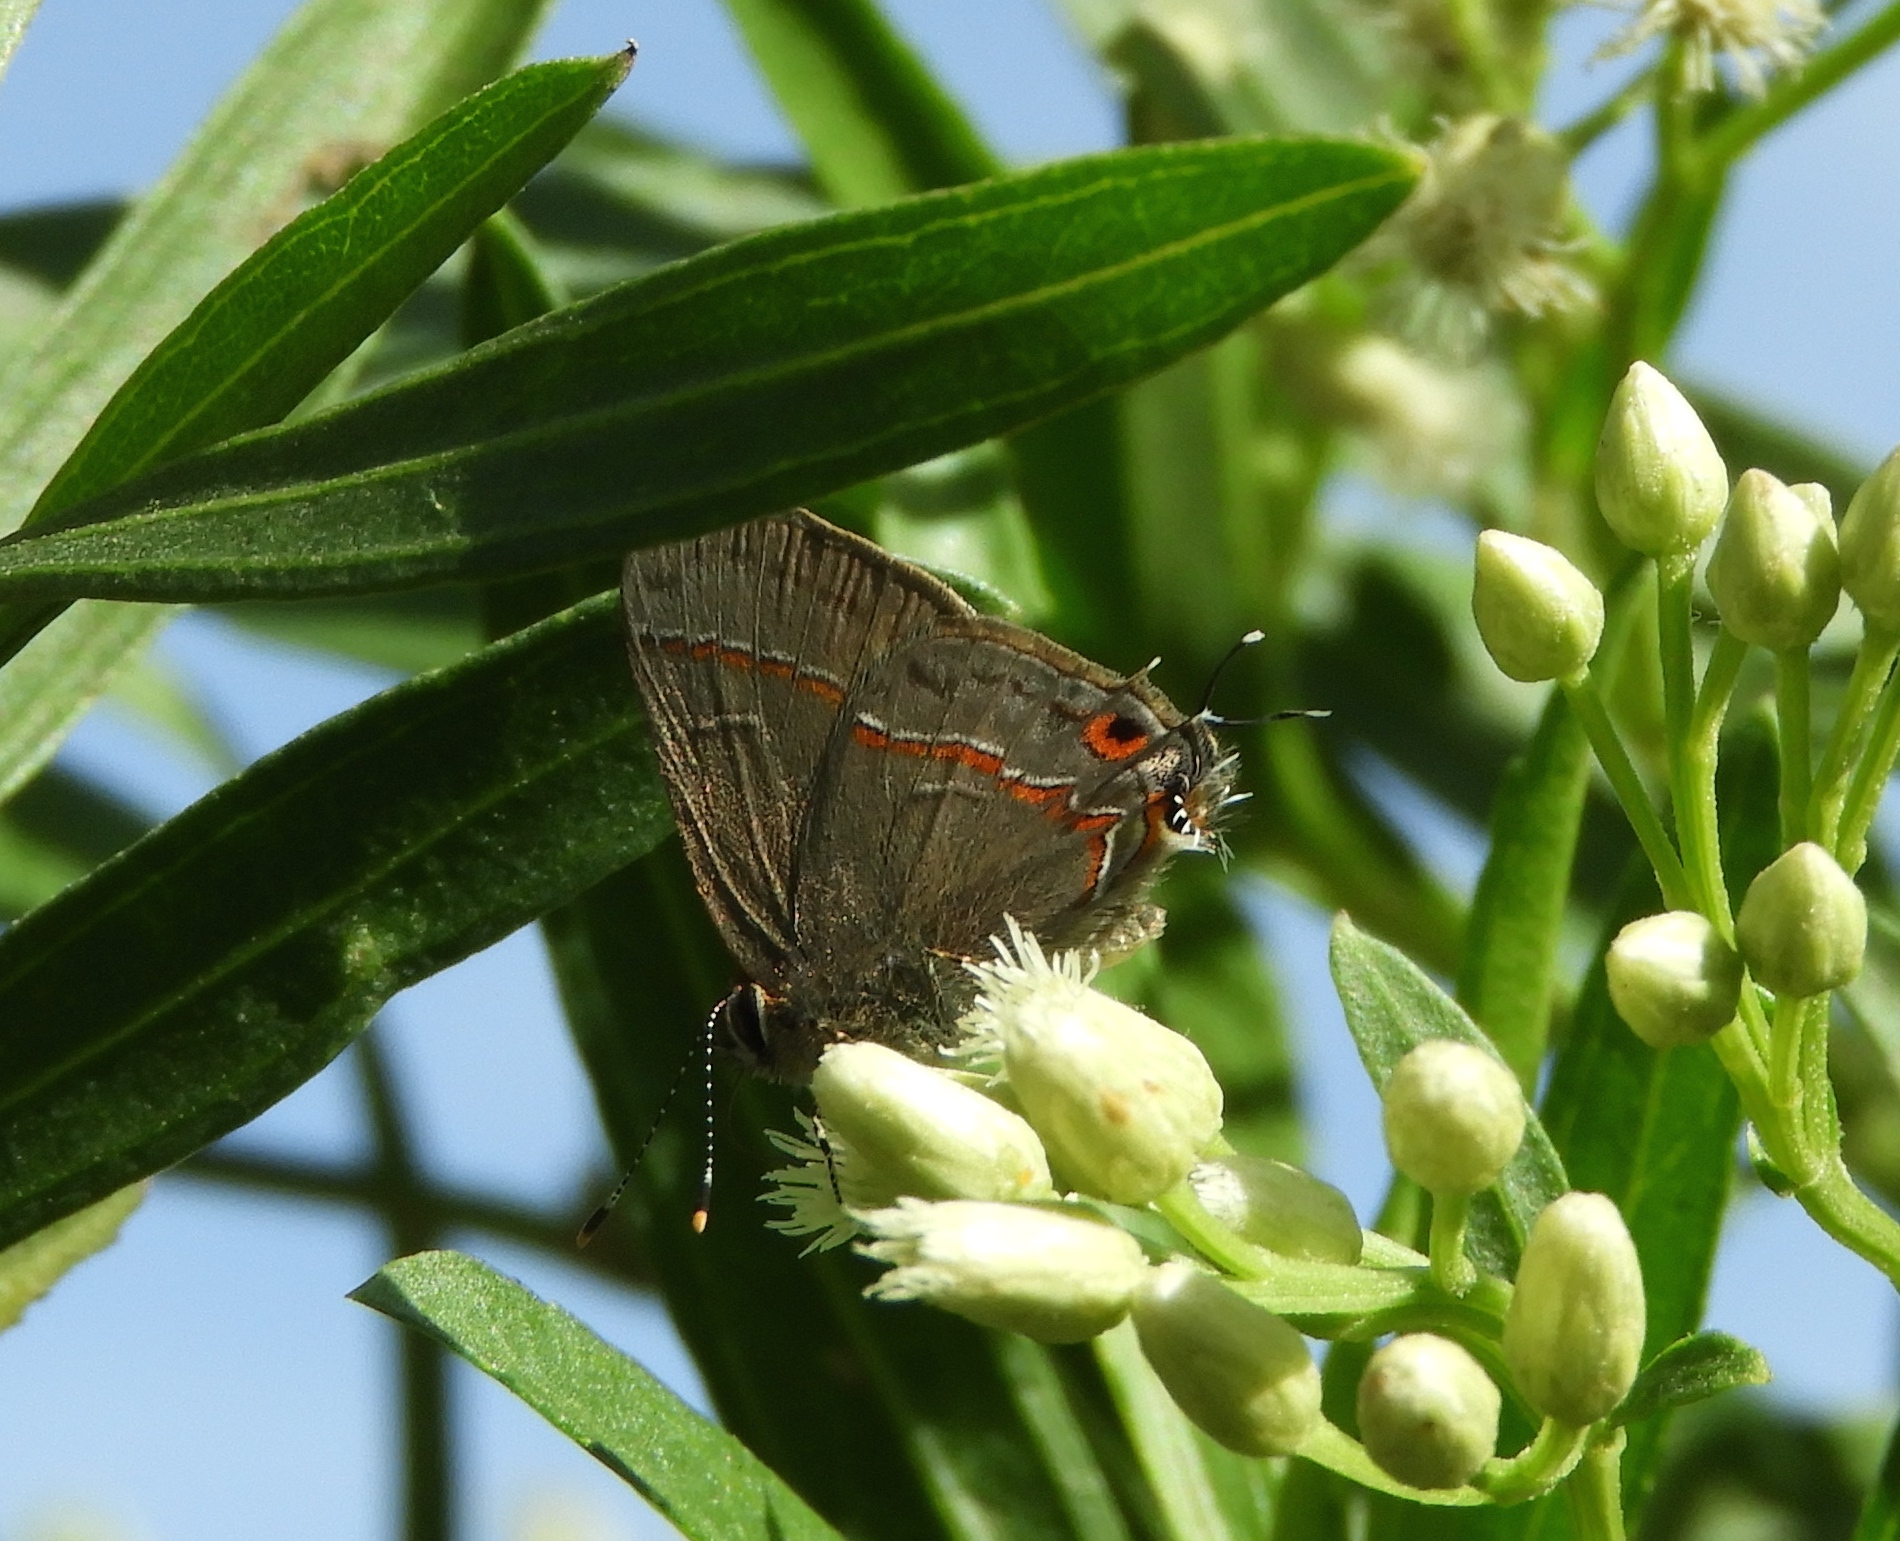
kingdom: Animalia
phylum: Arthropoda
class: Insecta
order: Lepidoptera
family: Lycaenidae
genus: Electrostrymon
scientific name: Electrostrymon endymion
